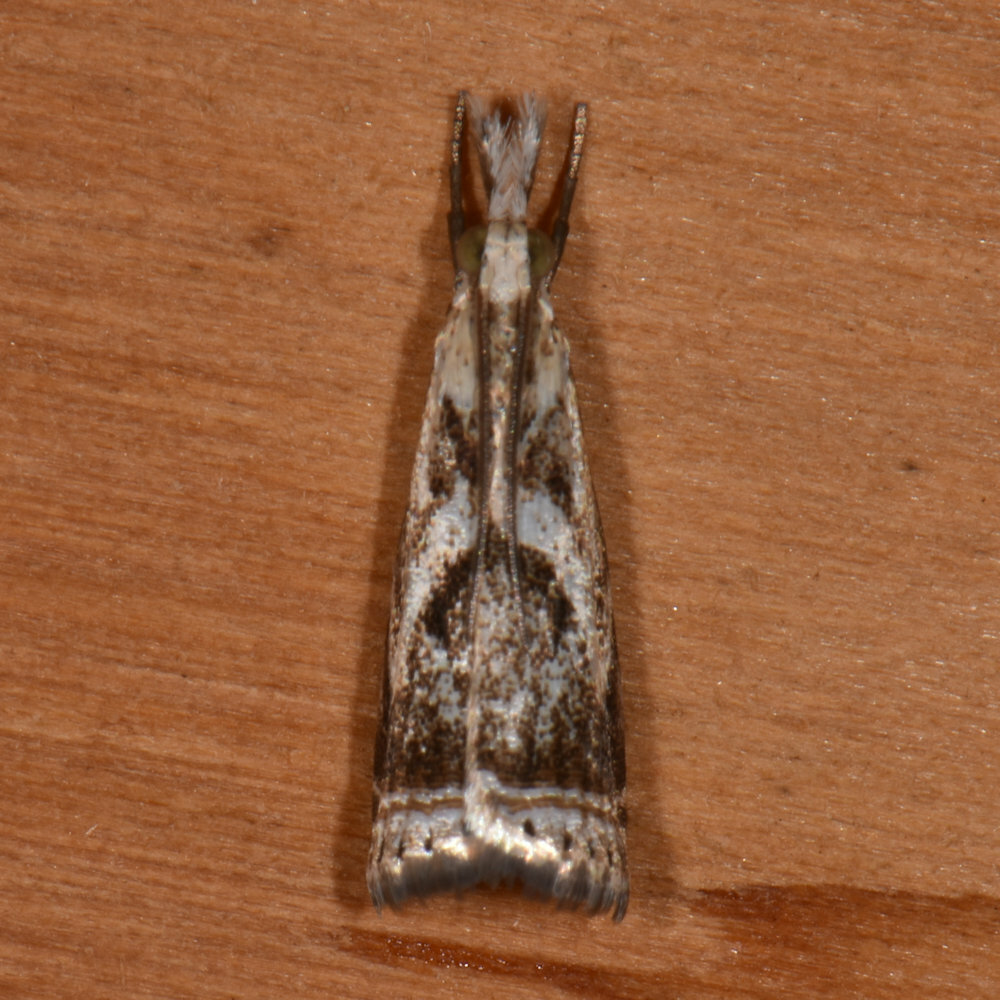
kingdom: Animalia
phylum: Arthropoda
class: Insecta
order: Lepidoptera
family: Crambidae
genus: Microcrambus
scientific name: Microcrambus elegans
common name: Elegant grass-veneer
